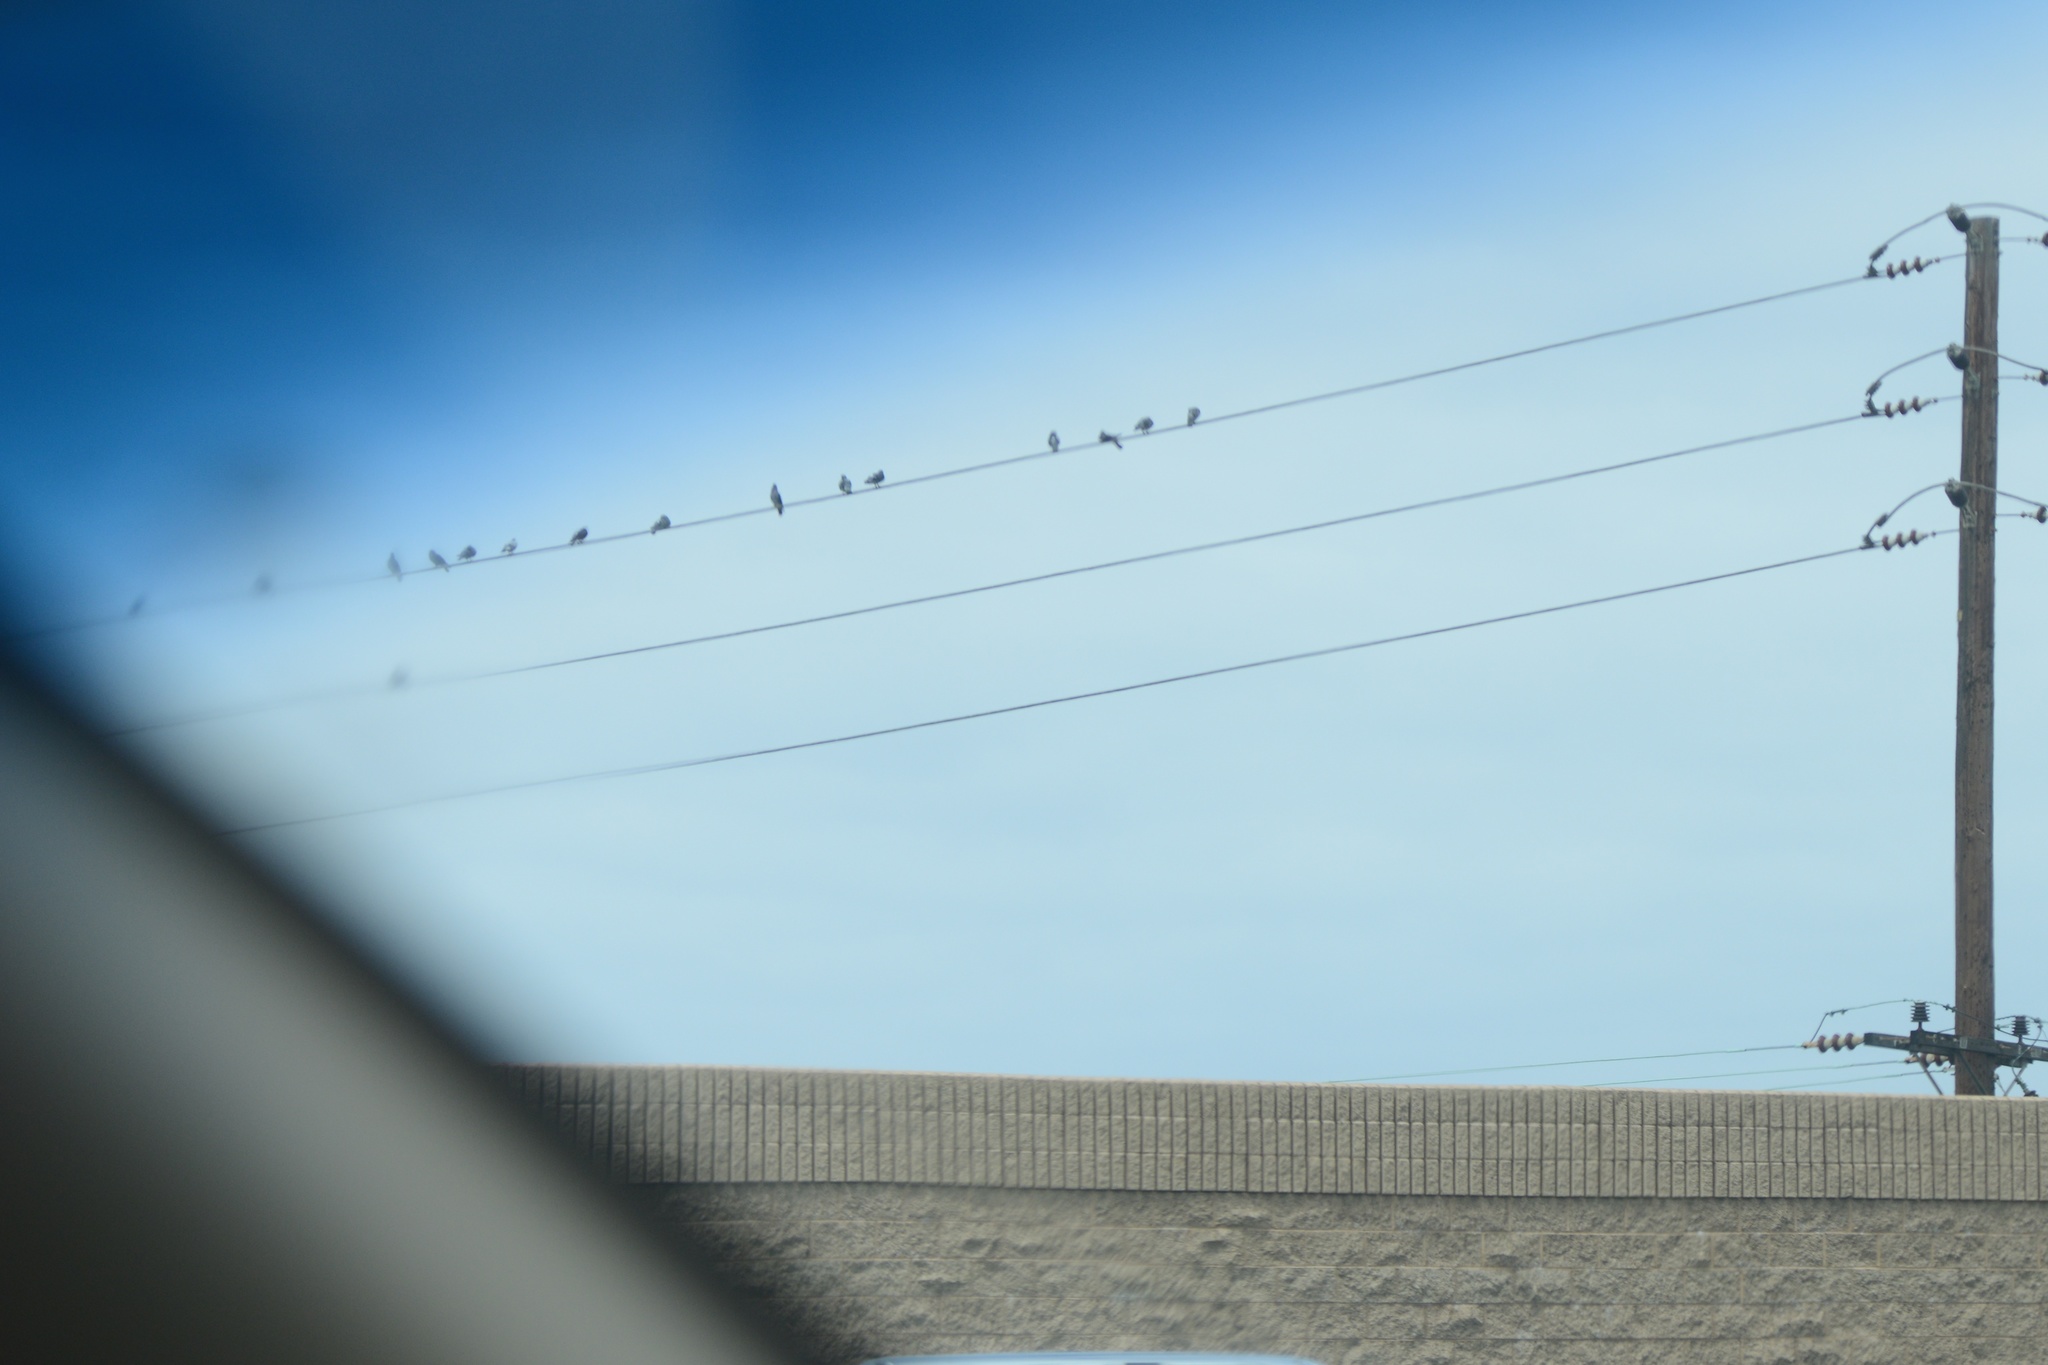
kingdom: Animalia
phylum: Chordata
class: Aves
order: Columbiformes
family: Columbidae
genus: Columba
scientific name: Columba livia
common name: Rock pigeon
